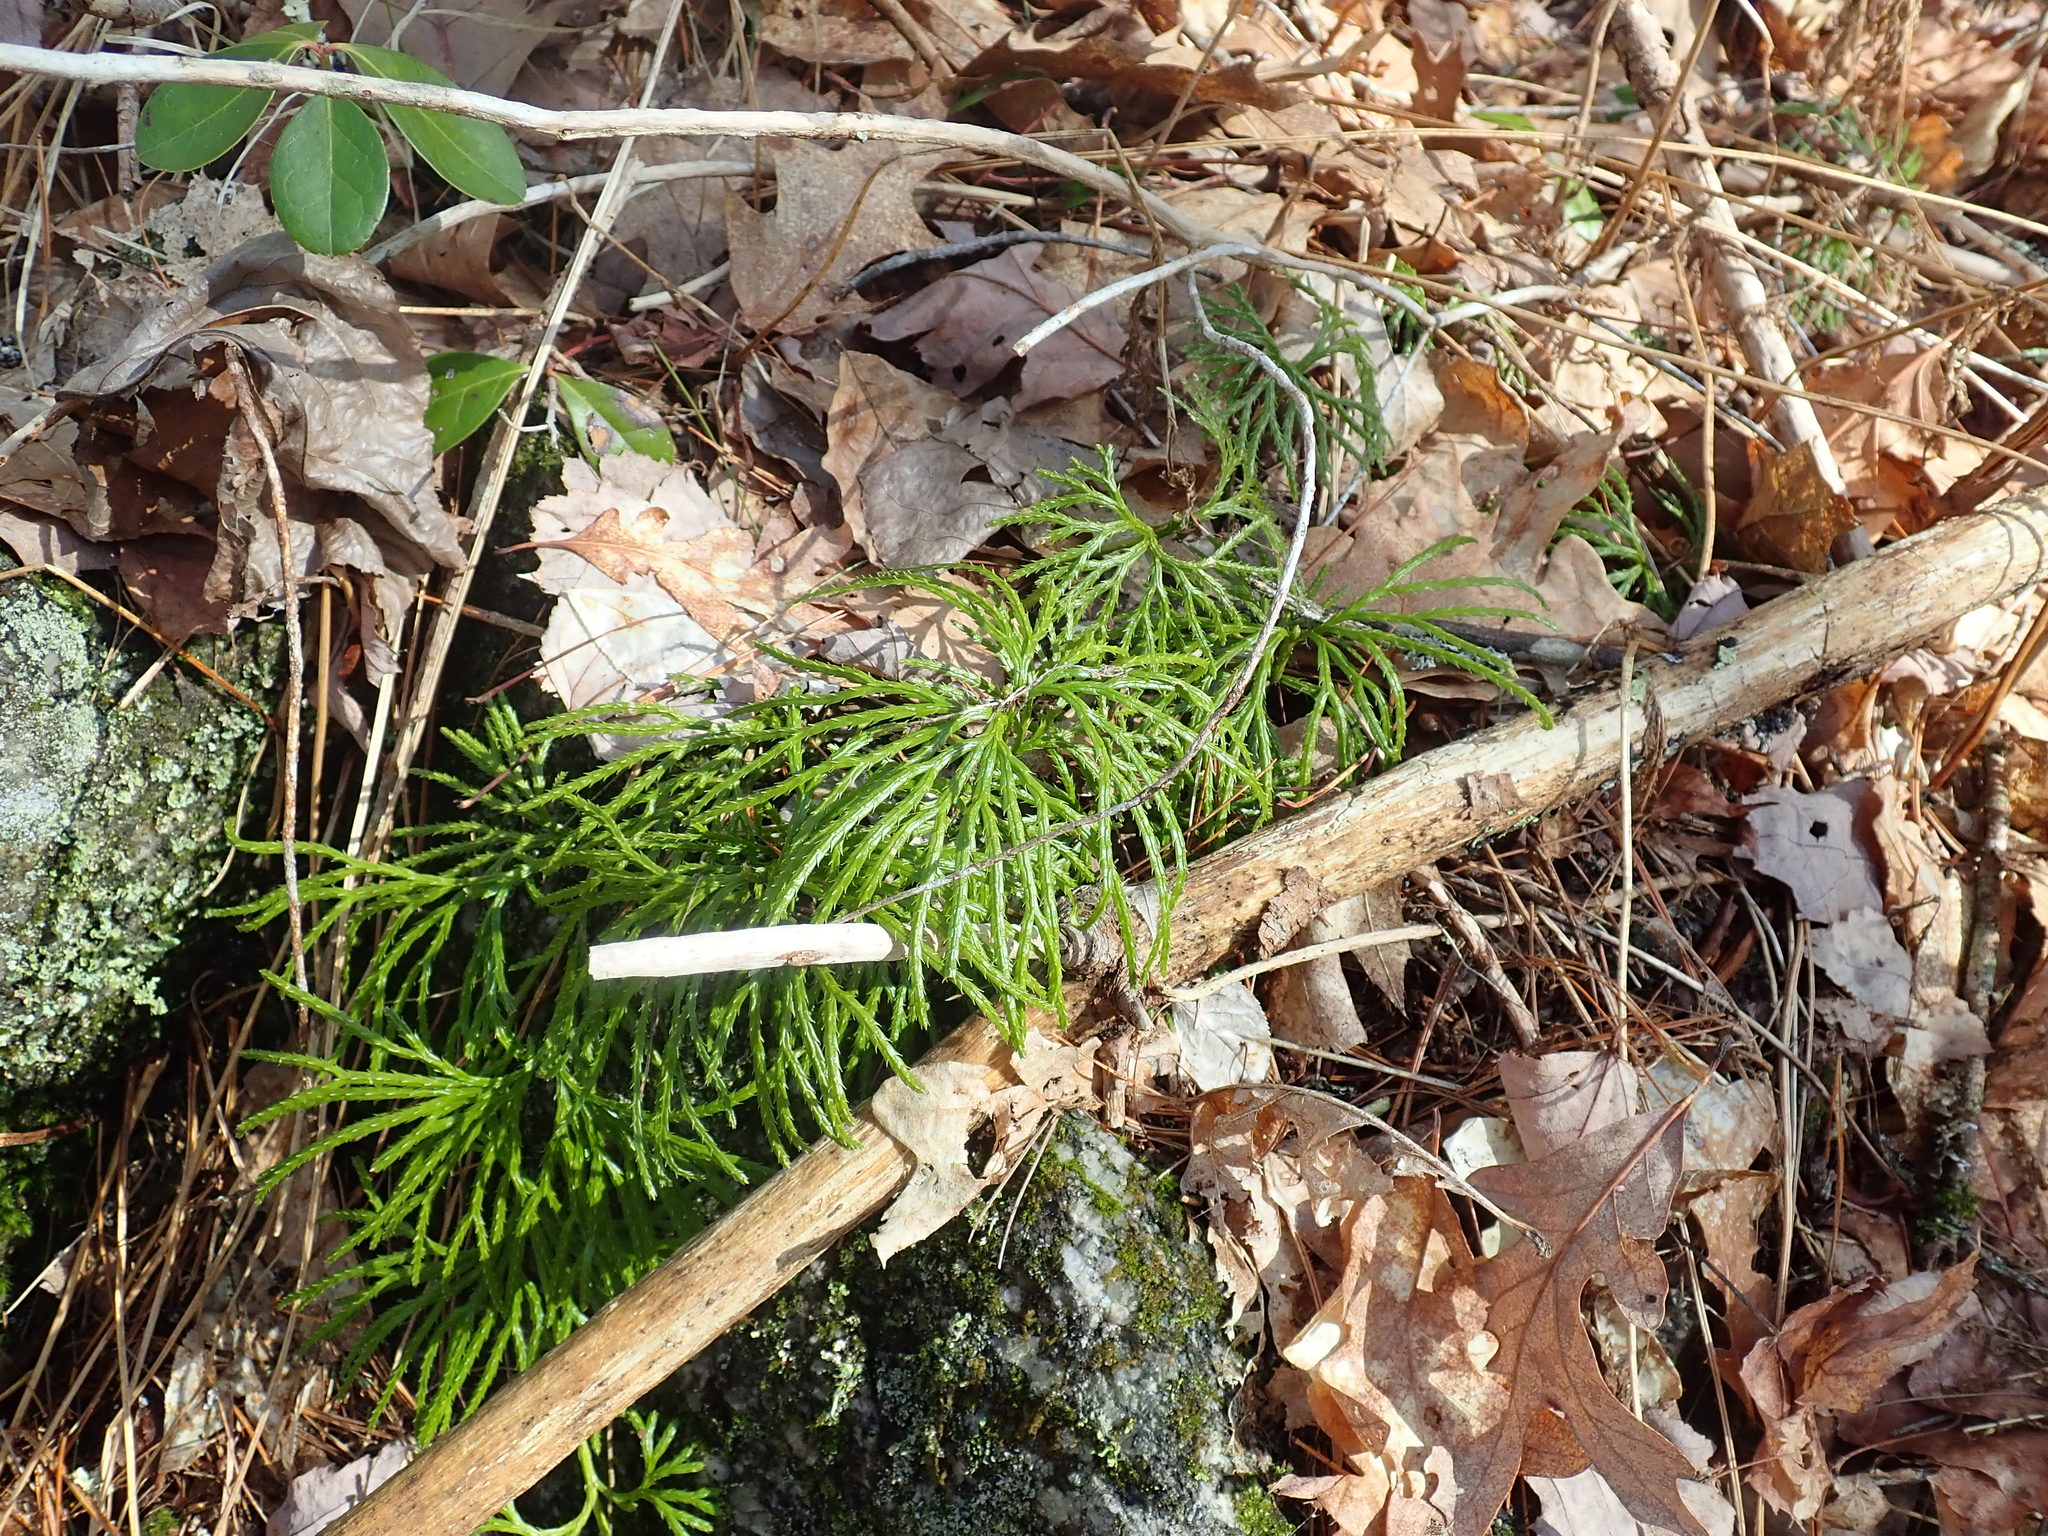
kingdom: Plantae
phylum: Tracheophyta
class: Lycopodiopsida
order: Lycopodiales
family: Lycopodiaceae
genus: Diphasiastrum
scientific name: Diphasiastrum digitatum
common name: Southern running-pine
